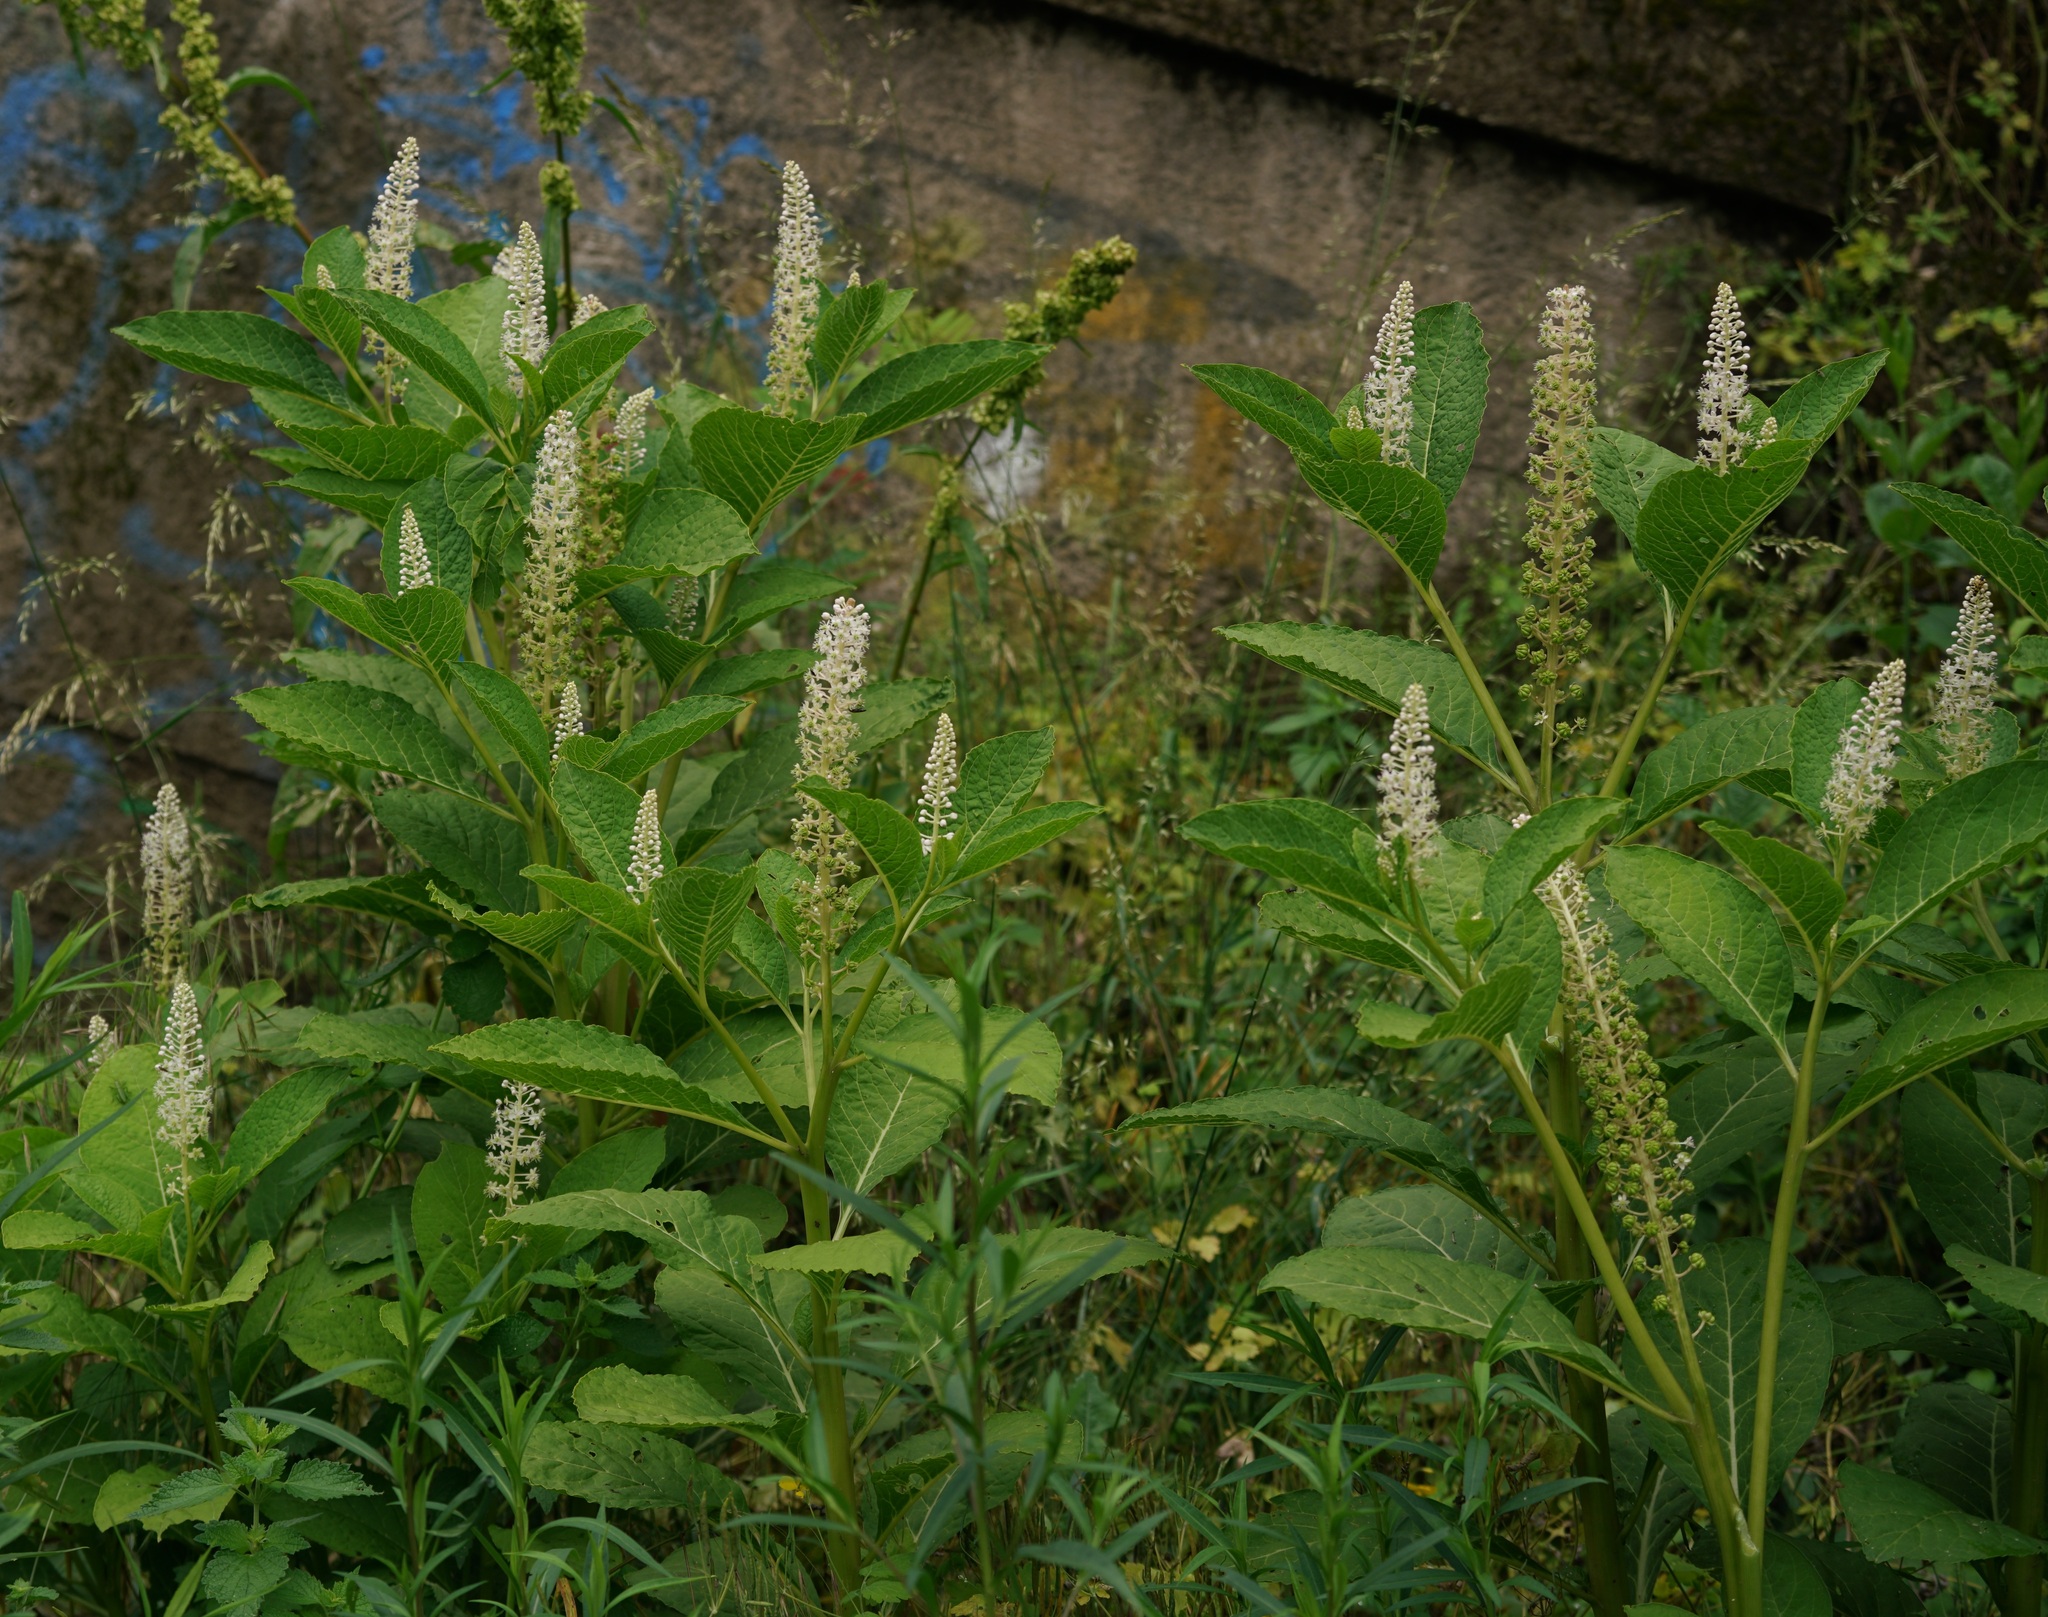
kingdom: Plantae
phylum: Tracheophyta
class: Magnoliopsida
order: Caryophyllales
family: Phytolaccaceae
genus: Phytolacca
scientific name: Phytolacca acinosa
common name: Indian pokeweed
